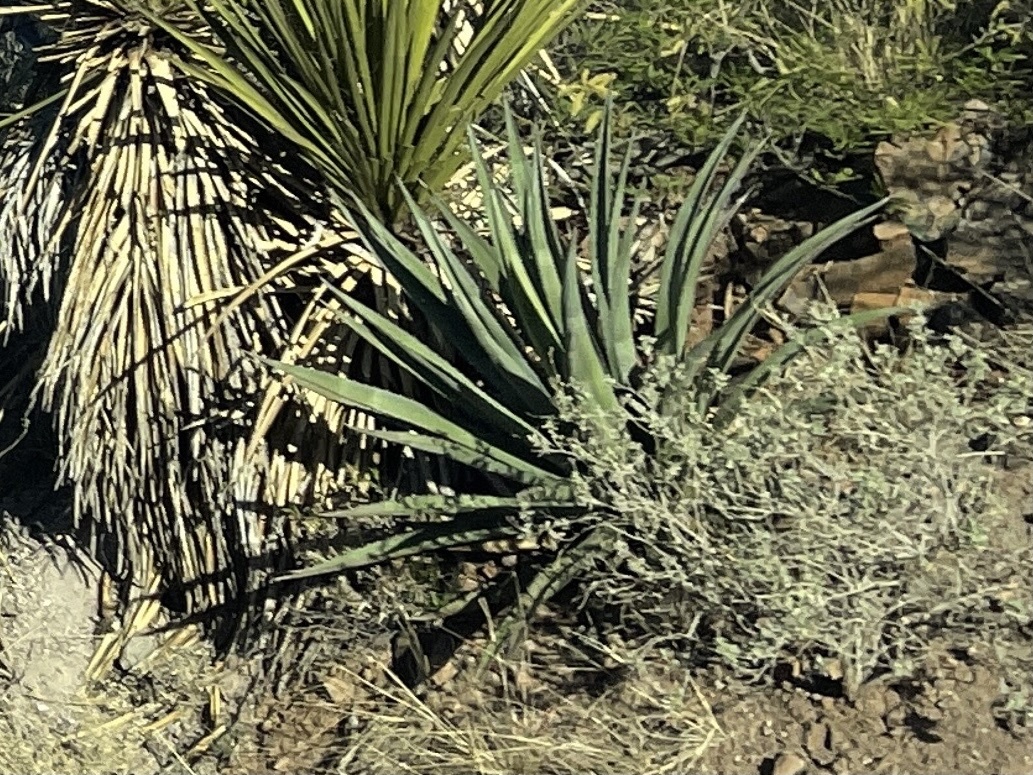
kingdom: Plantae
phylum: Tracheophyta
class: Liliopsida
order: Asparagales
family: Asparagaceae
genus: Agave
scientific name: Agave palmeri
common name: Palmer agave
